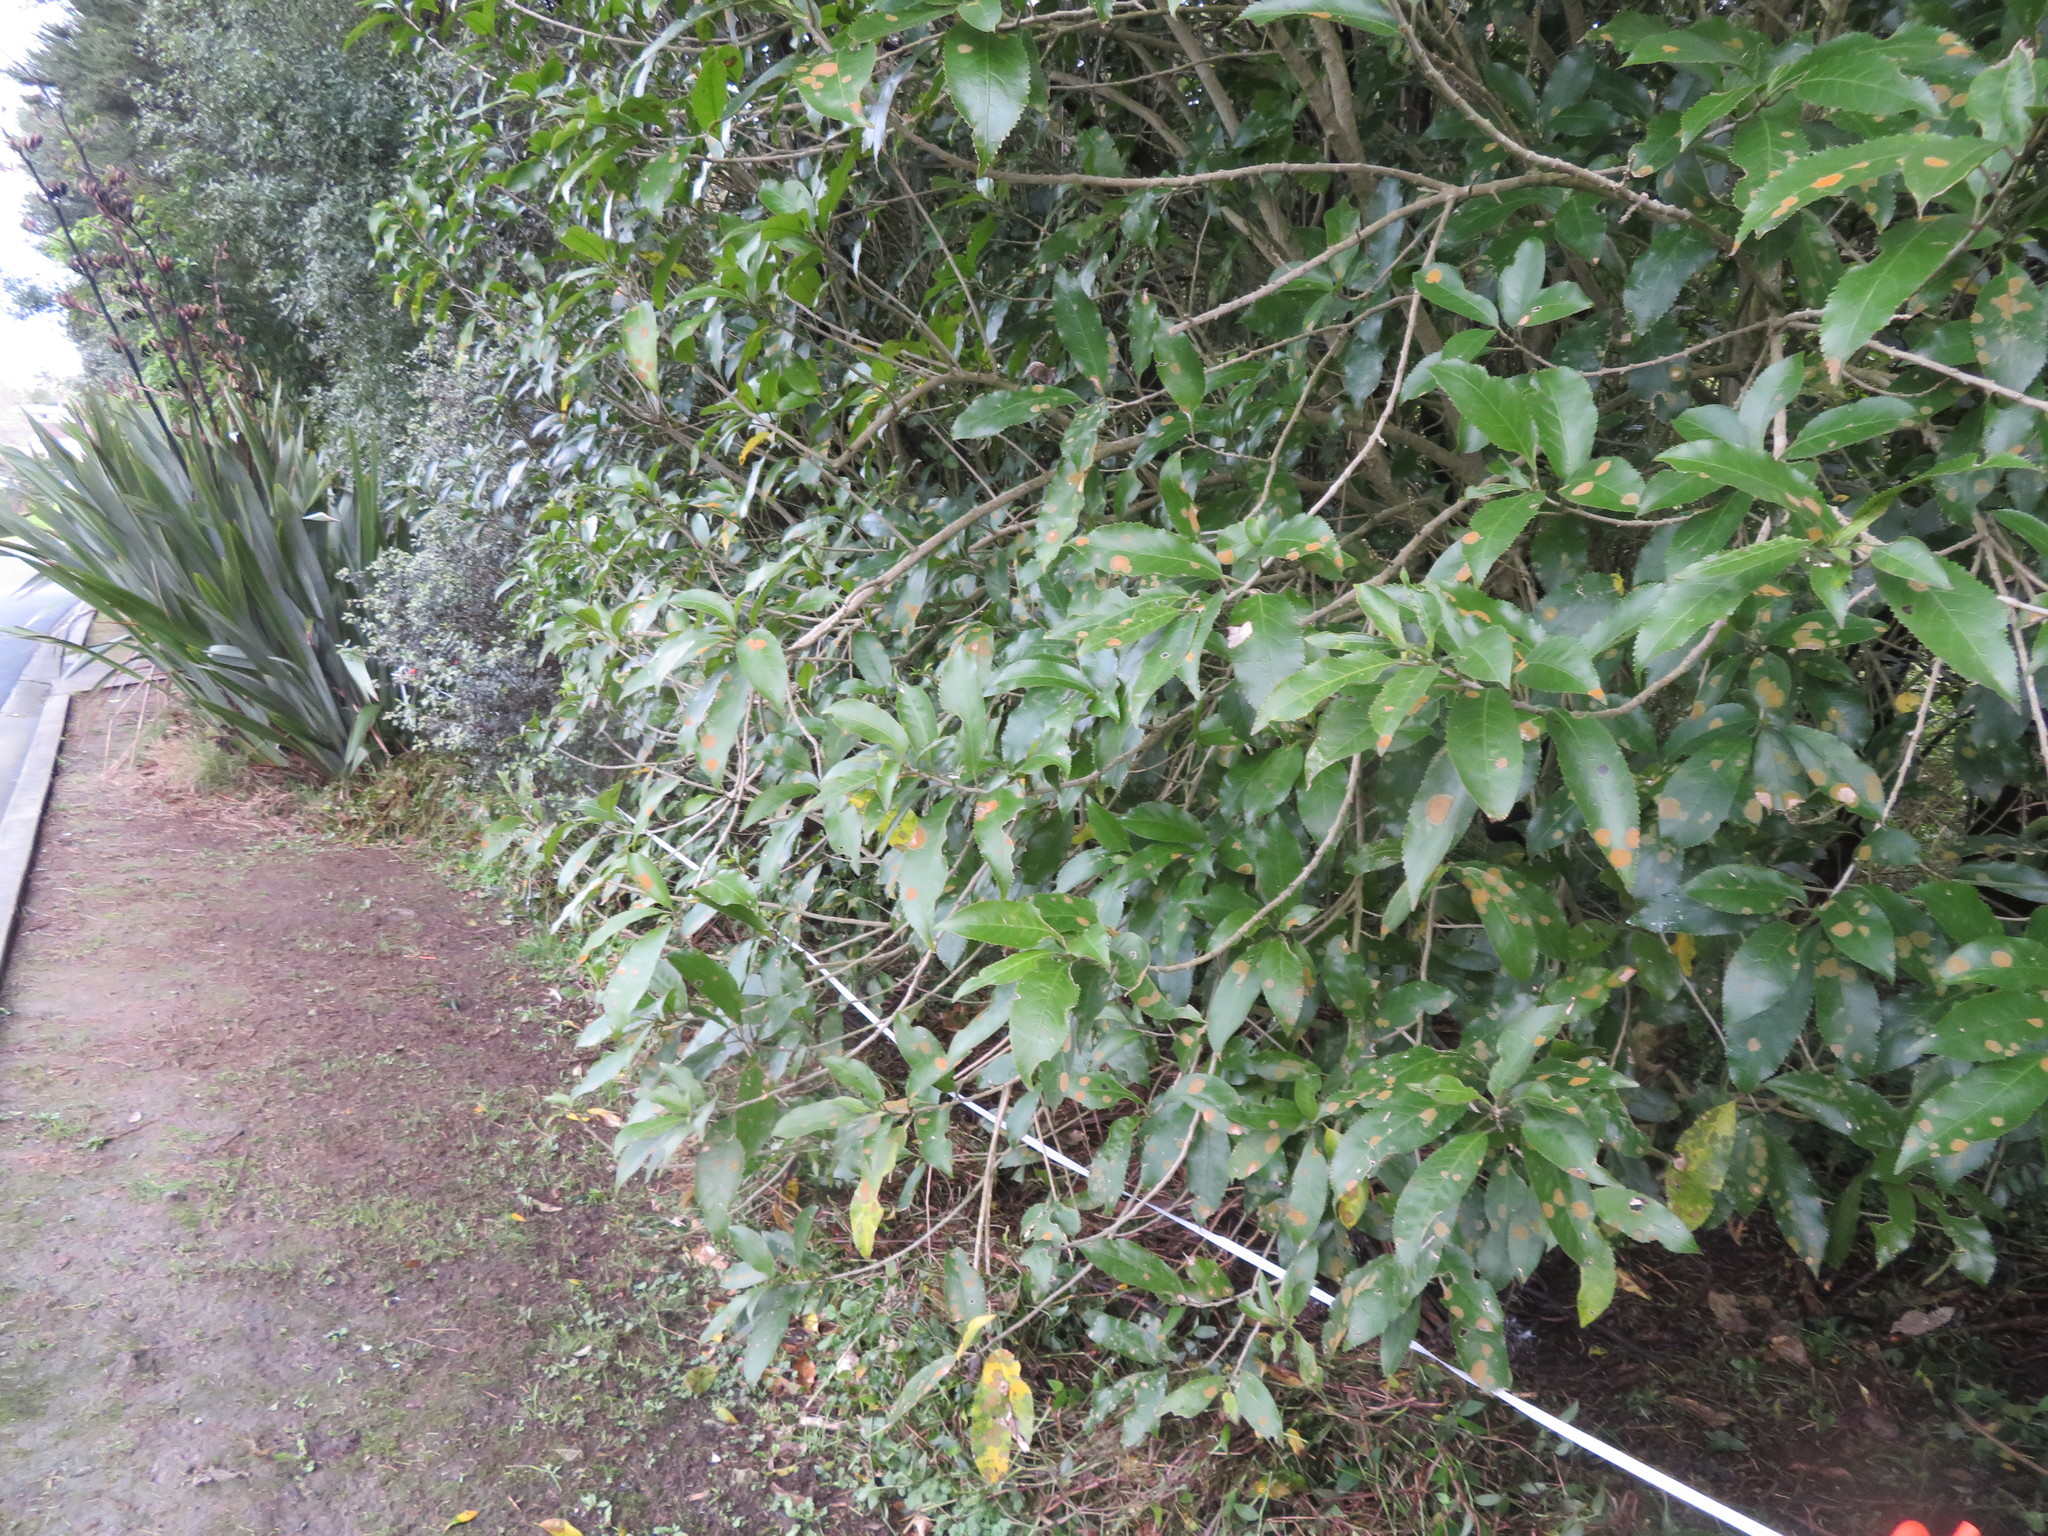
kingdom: Plantae
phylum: Tracheophyta
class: Magnoliopsida
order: Malpighiales
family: Violaceae
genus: Melicytus
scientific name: Melicytus ramiflorus
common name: Mahoe
